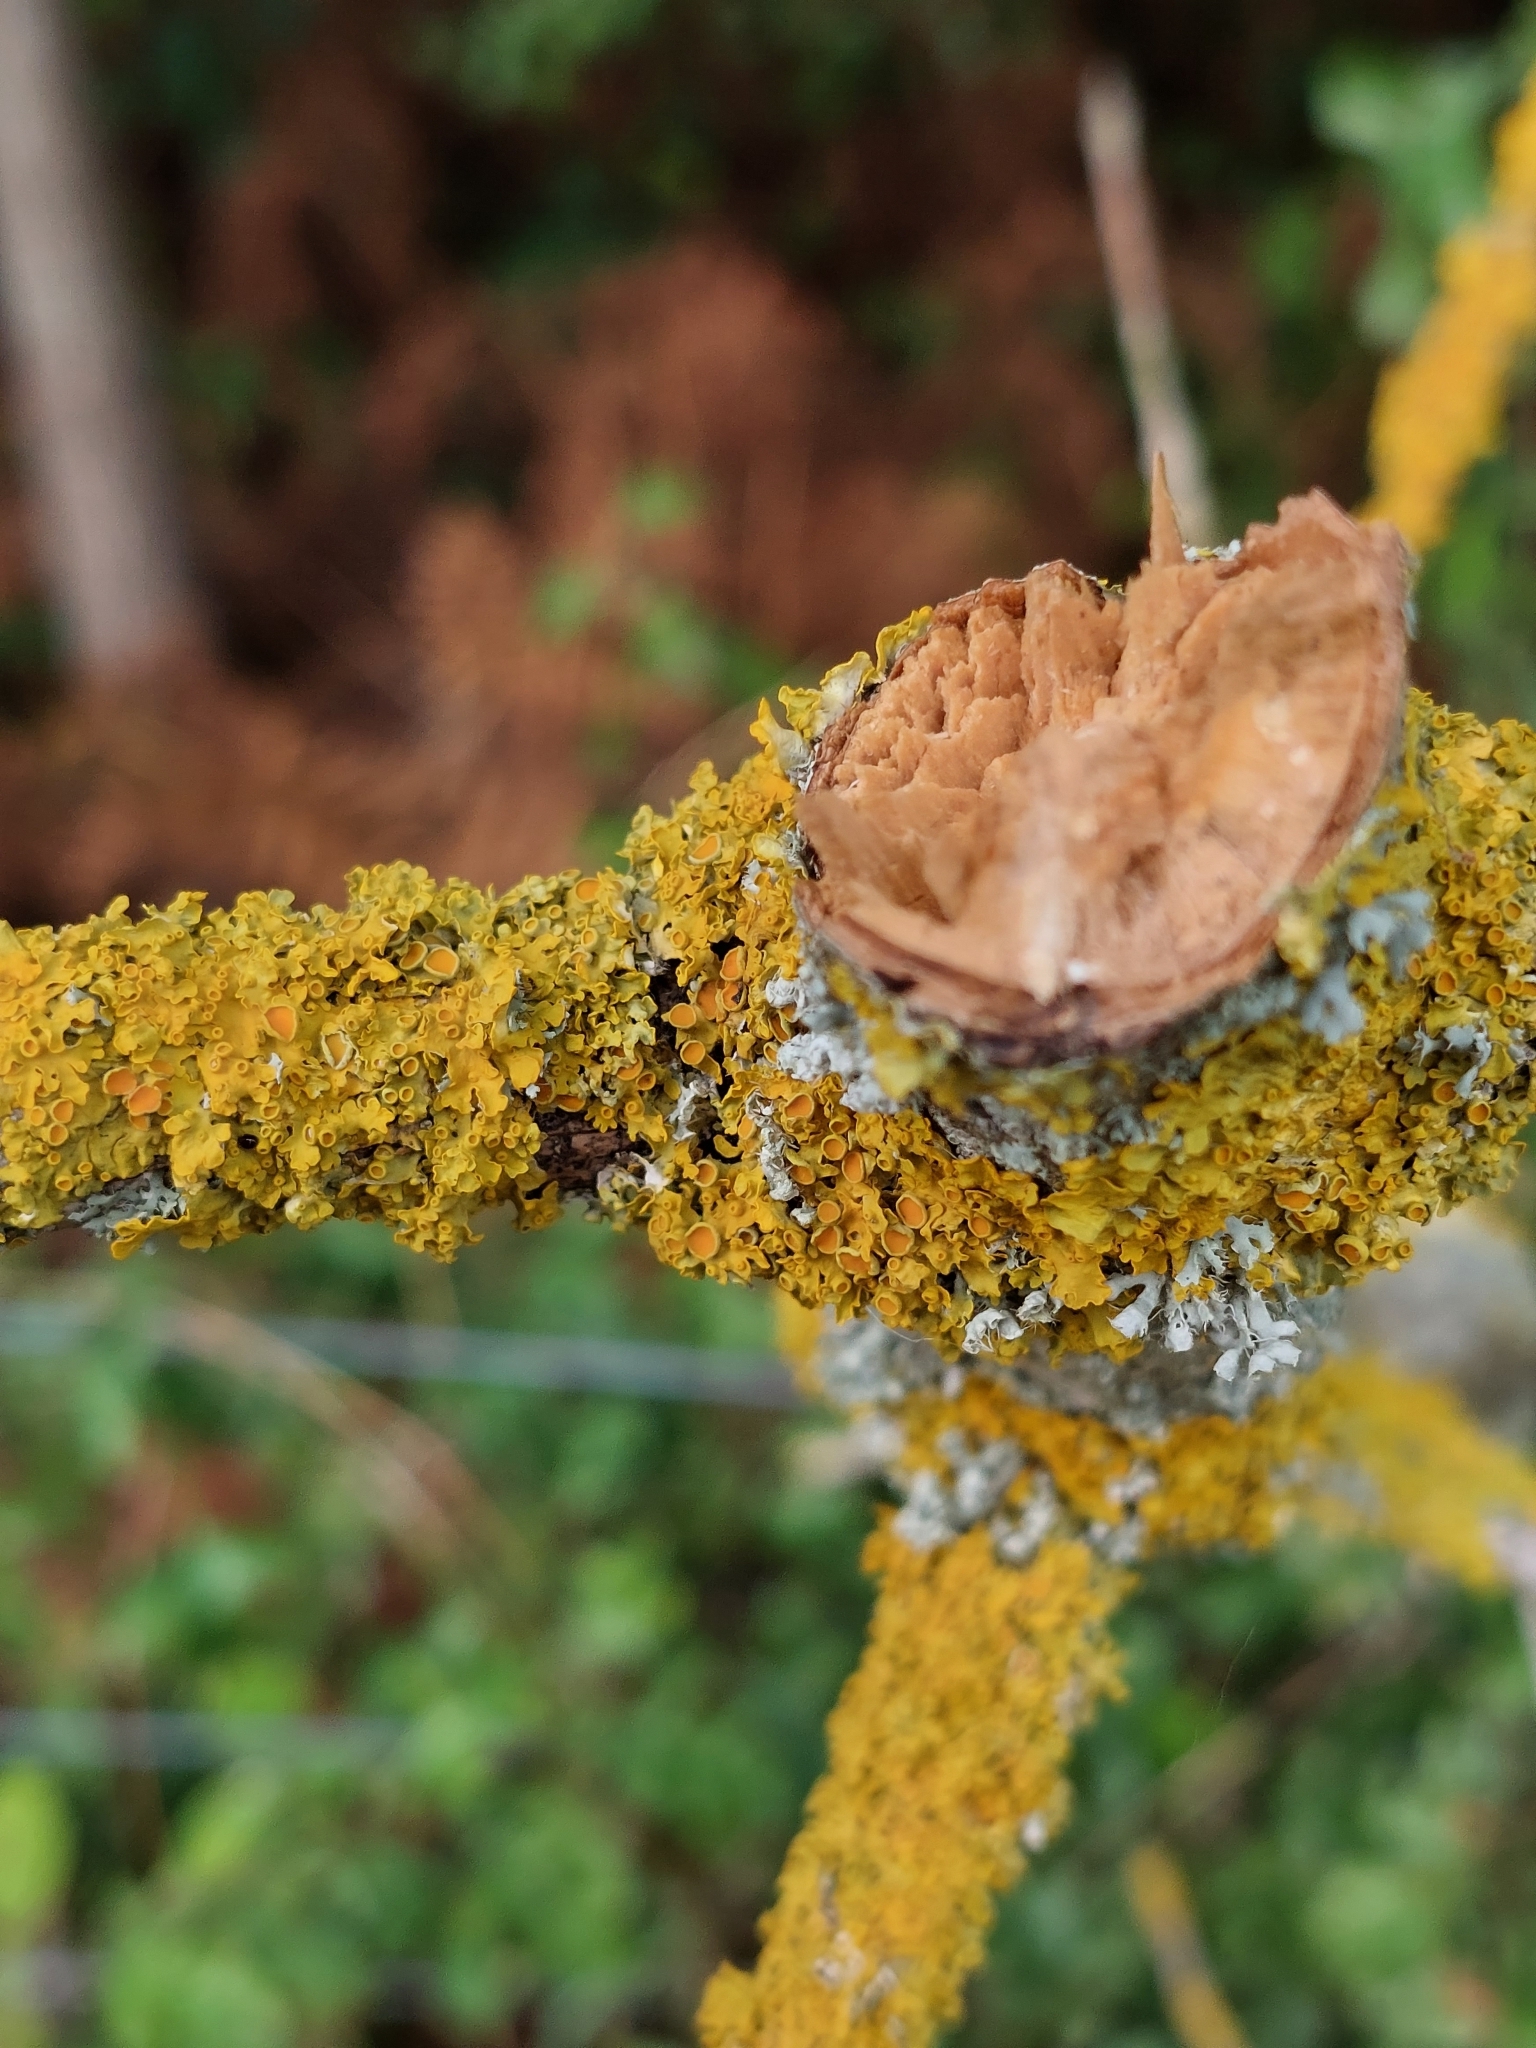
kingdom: Fungi
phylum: Ascomycota
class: Lecanoromycetes
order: Teloschistales
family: Teloschistaceae
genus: Xanthoria
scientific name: Xanthoria parietina
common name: Common orange lichen
